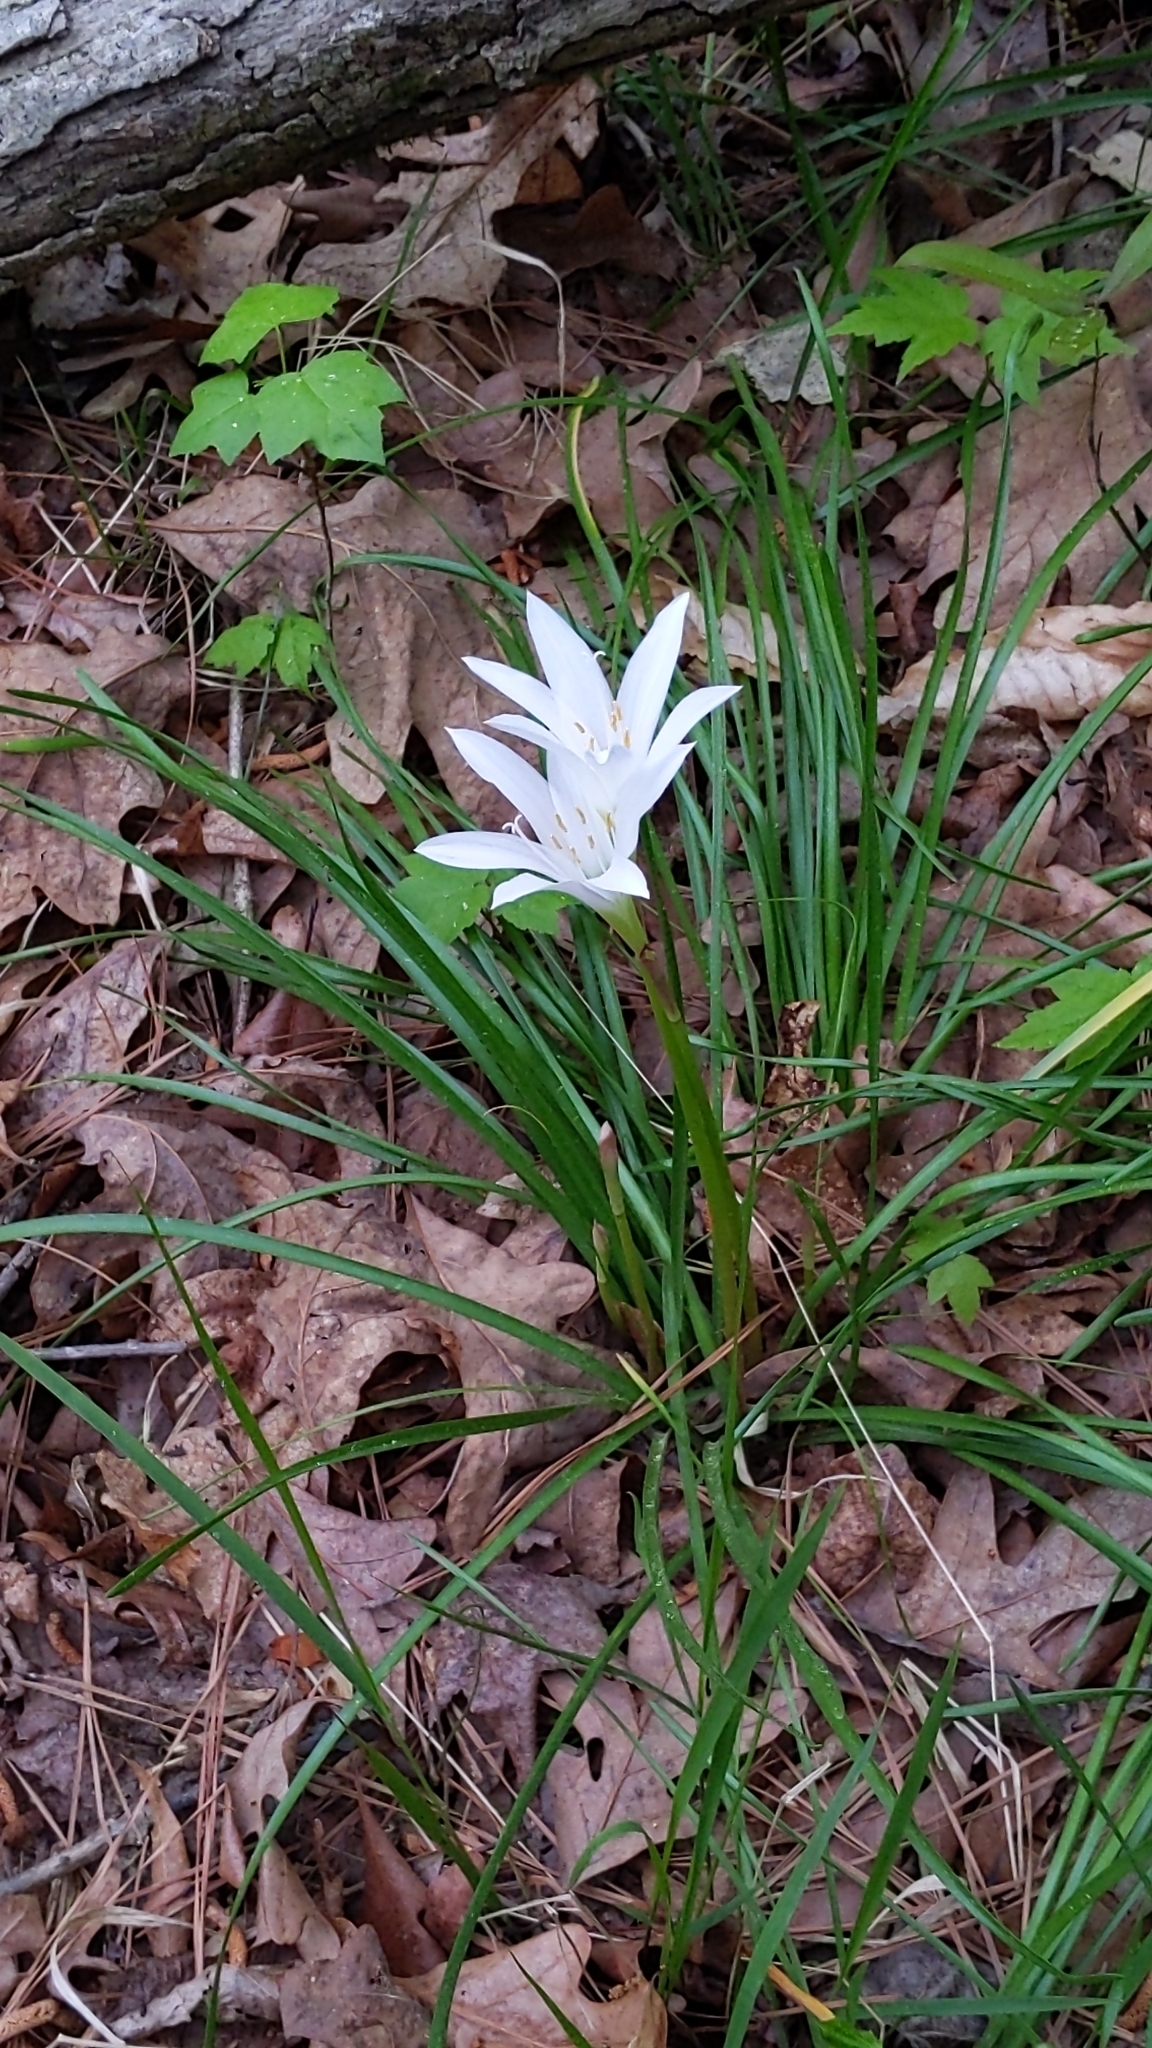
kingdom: Plantae
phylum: Tracheophyta
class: Liliopsida
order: Asparagales
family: Amaryllidaceae
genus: Zephyranthes
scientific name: Zephyranthes atamasco
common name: Atamasco lily
